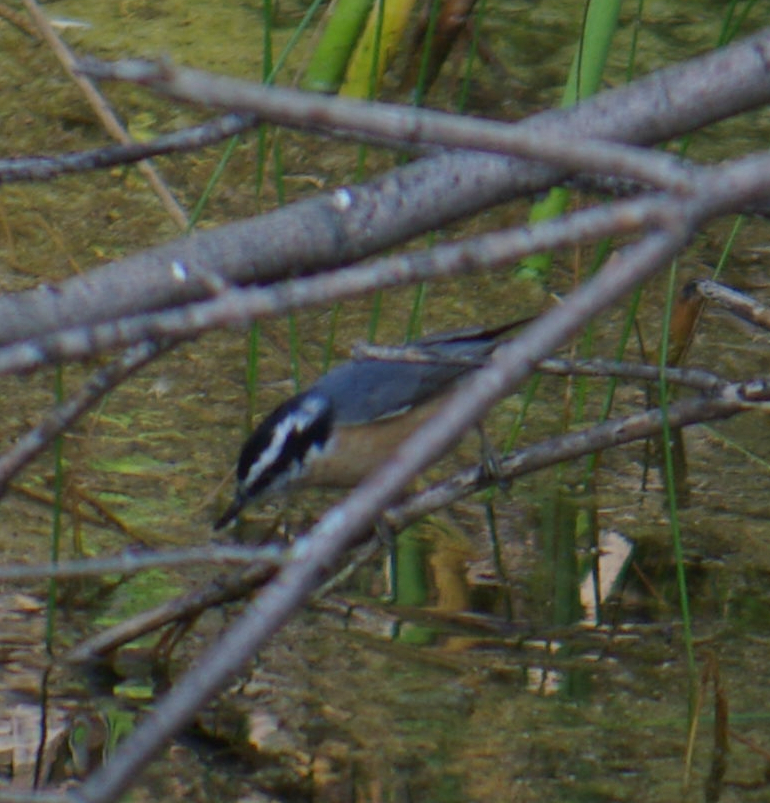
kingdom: Animalia
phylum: Chordata
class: Aves
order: Passeriformes
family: Sittidae
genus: Sitta
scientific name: Sitta canadensis
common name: Red-breasted nuthatch
